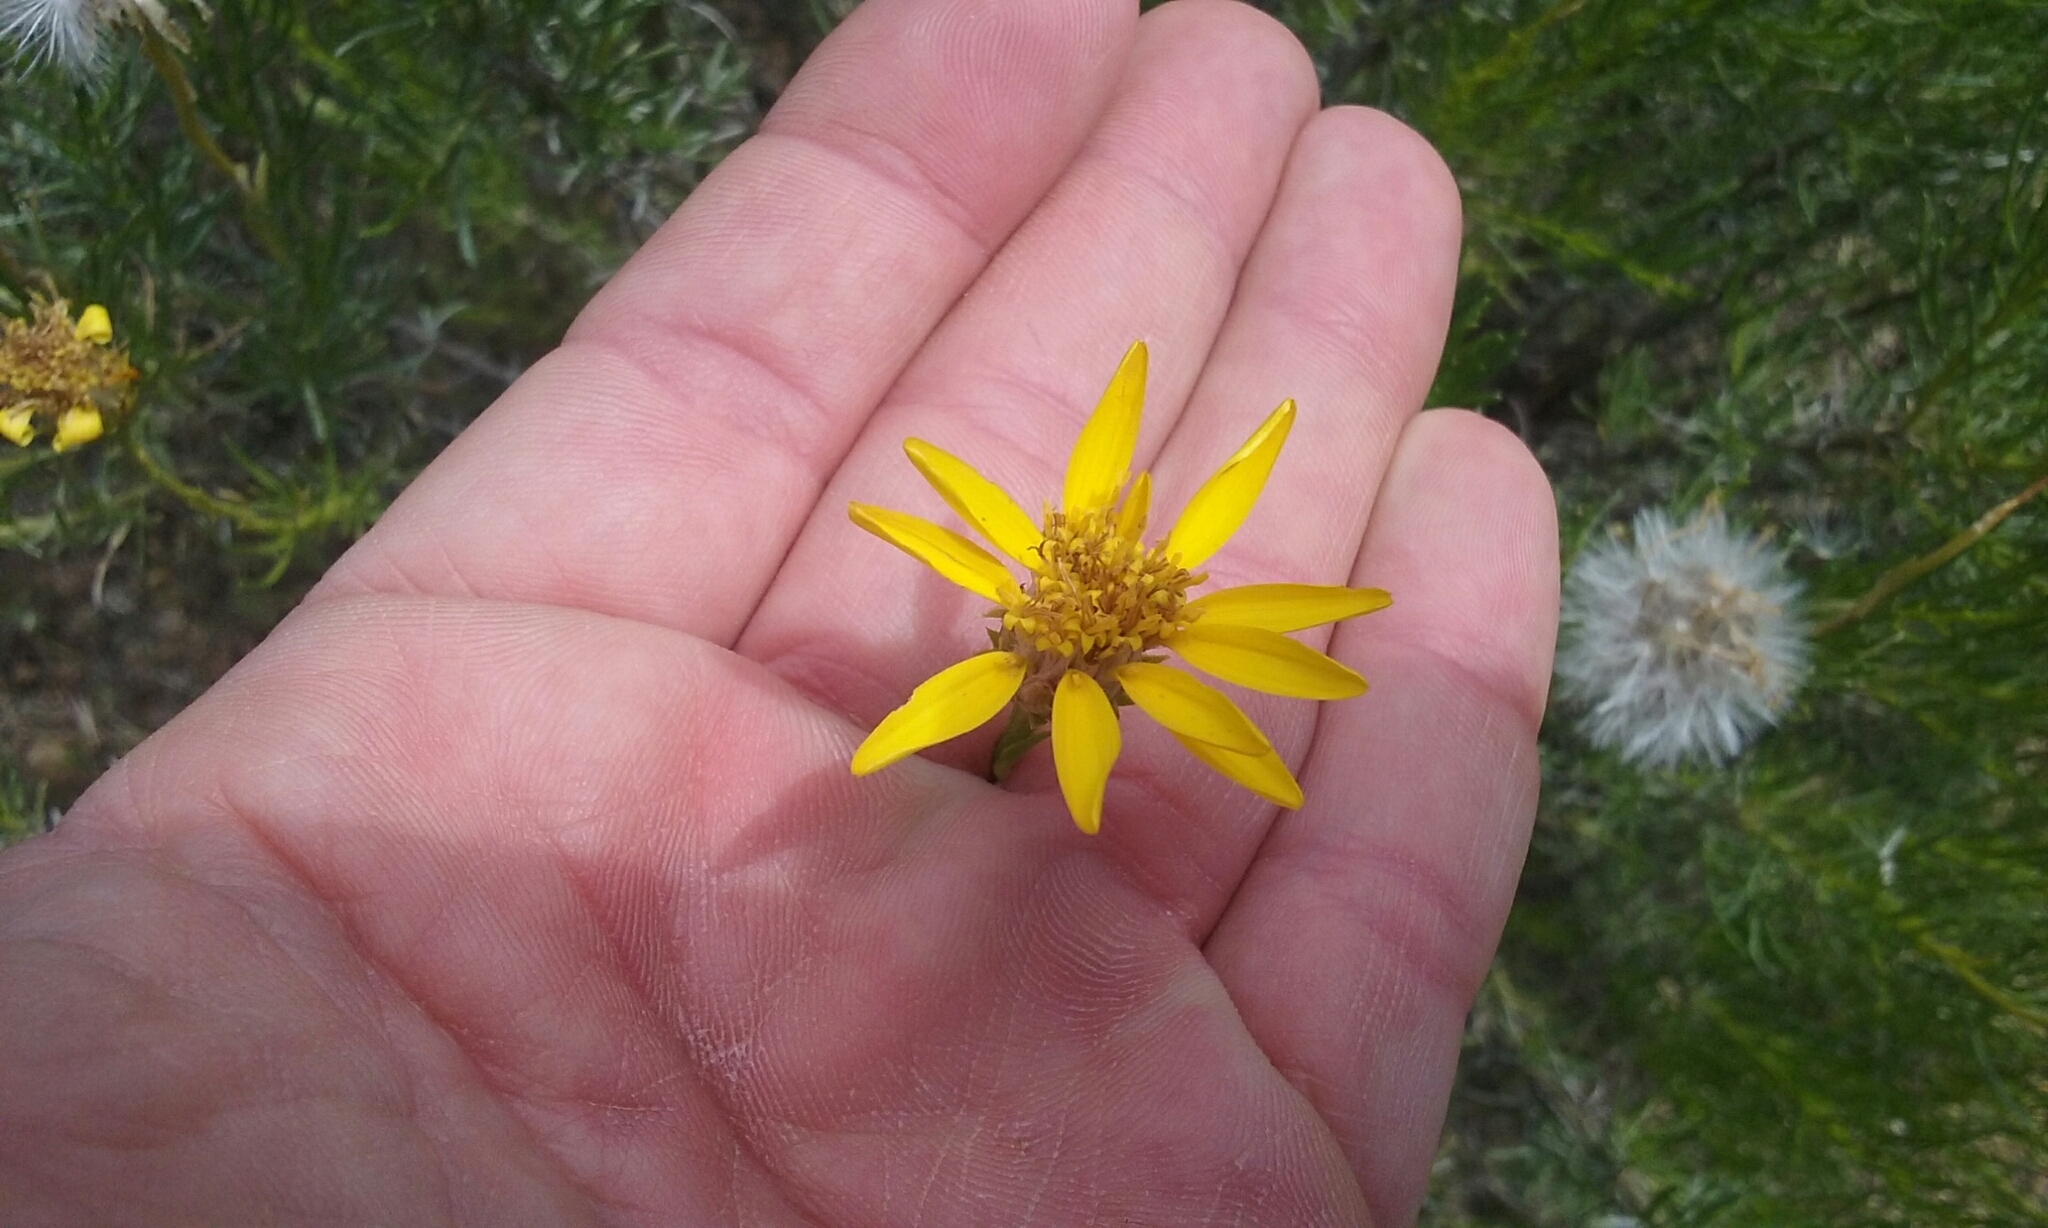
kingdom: Plantae
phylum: Tracheophyta
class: Magnoliopsida
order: Asterales
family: Asteraceae
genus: Ericameria
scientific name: Ericameria linearifolia
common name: Interior goldenbush
